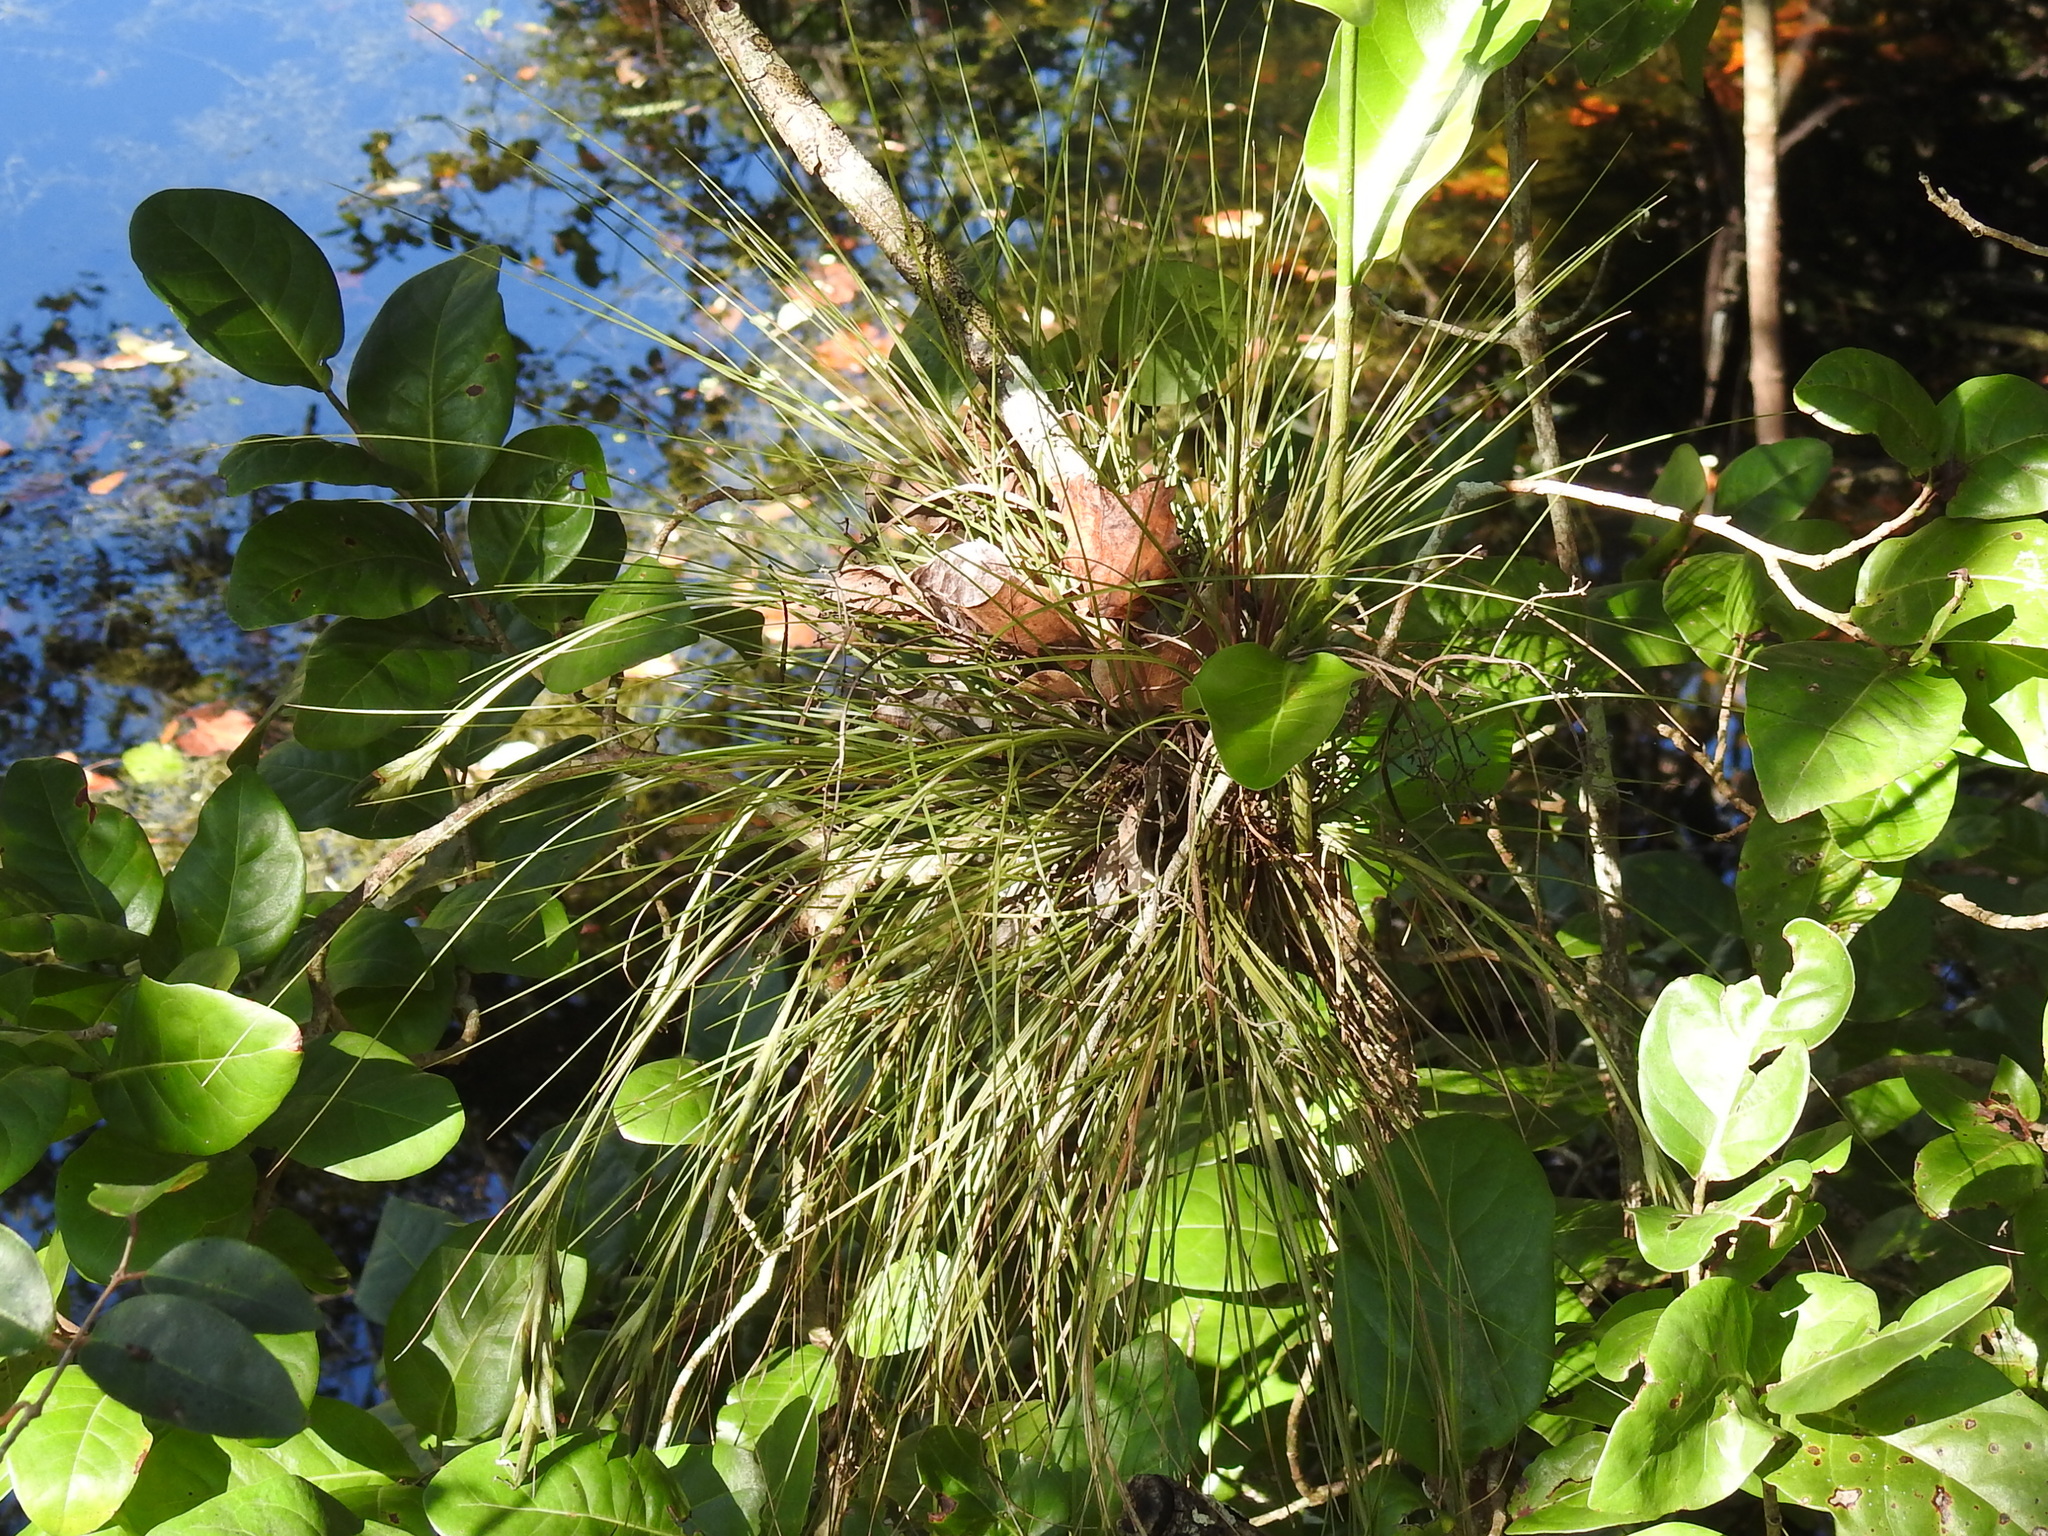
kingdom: Plantae
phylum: Tracheophyta
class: Liliopsida
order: Poales
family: Bromeliaceae
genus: Tillandsia
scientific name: Tillandsia setacea
